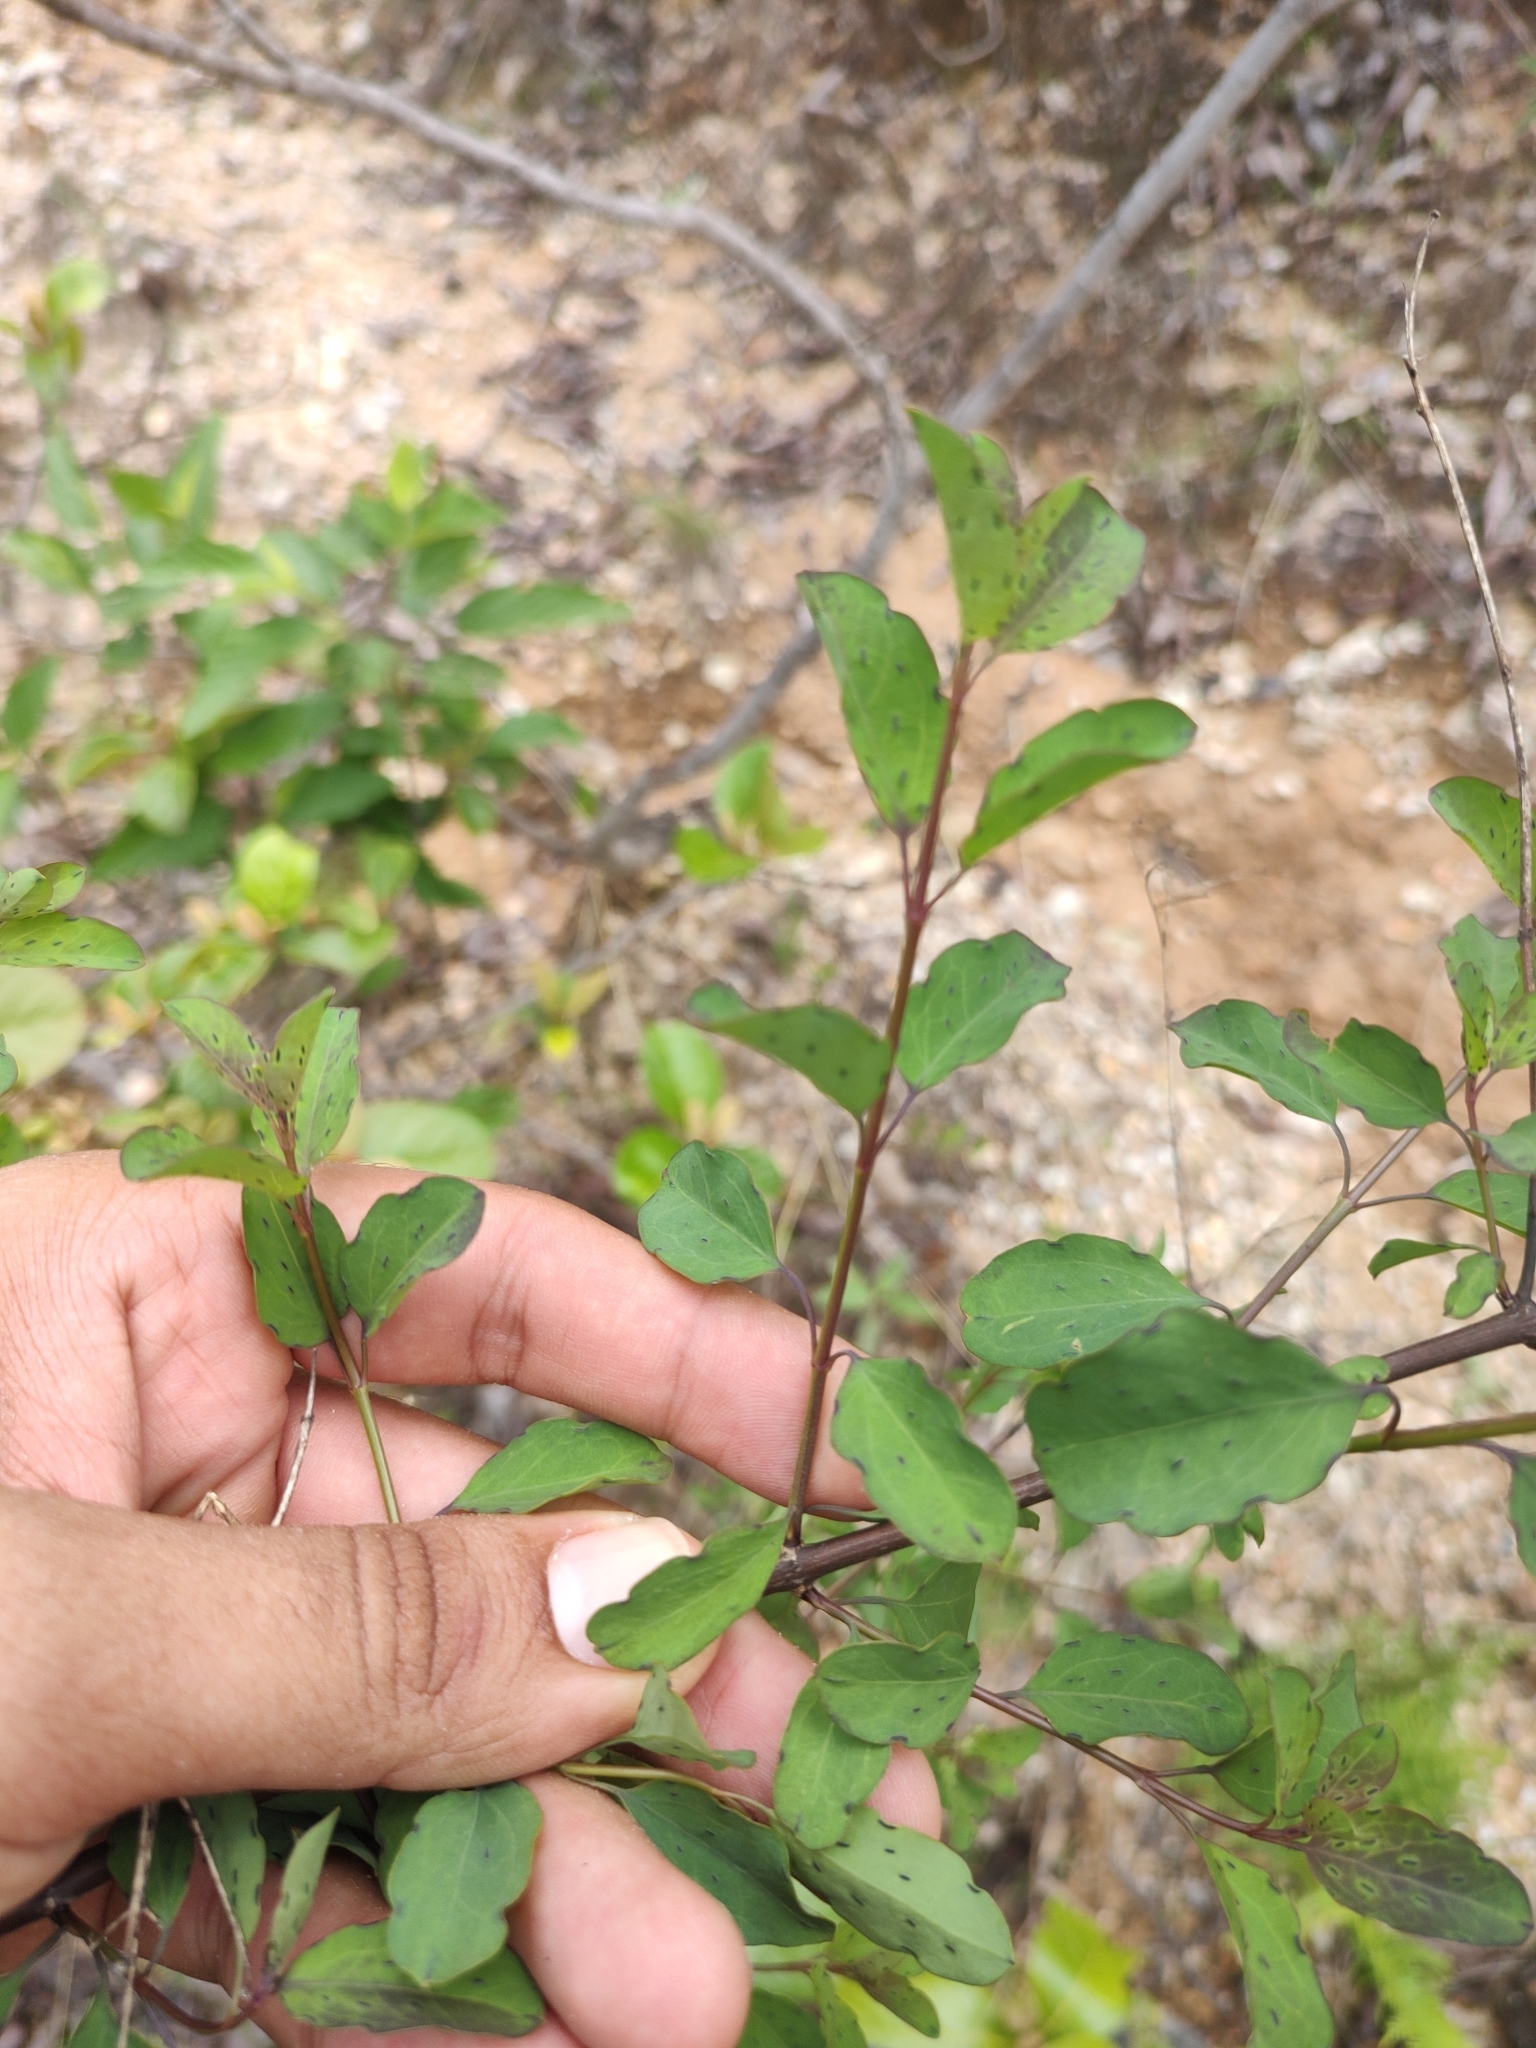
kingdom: Plantae
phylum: Tracheophyta
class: Magnoliopsida
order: Asterales
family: Asteraceae
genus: Porophyllum
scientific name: Porophyllum punctatum
